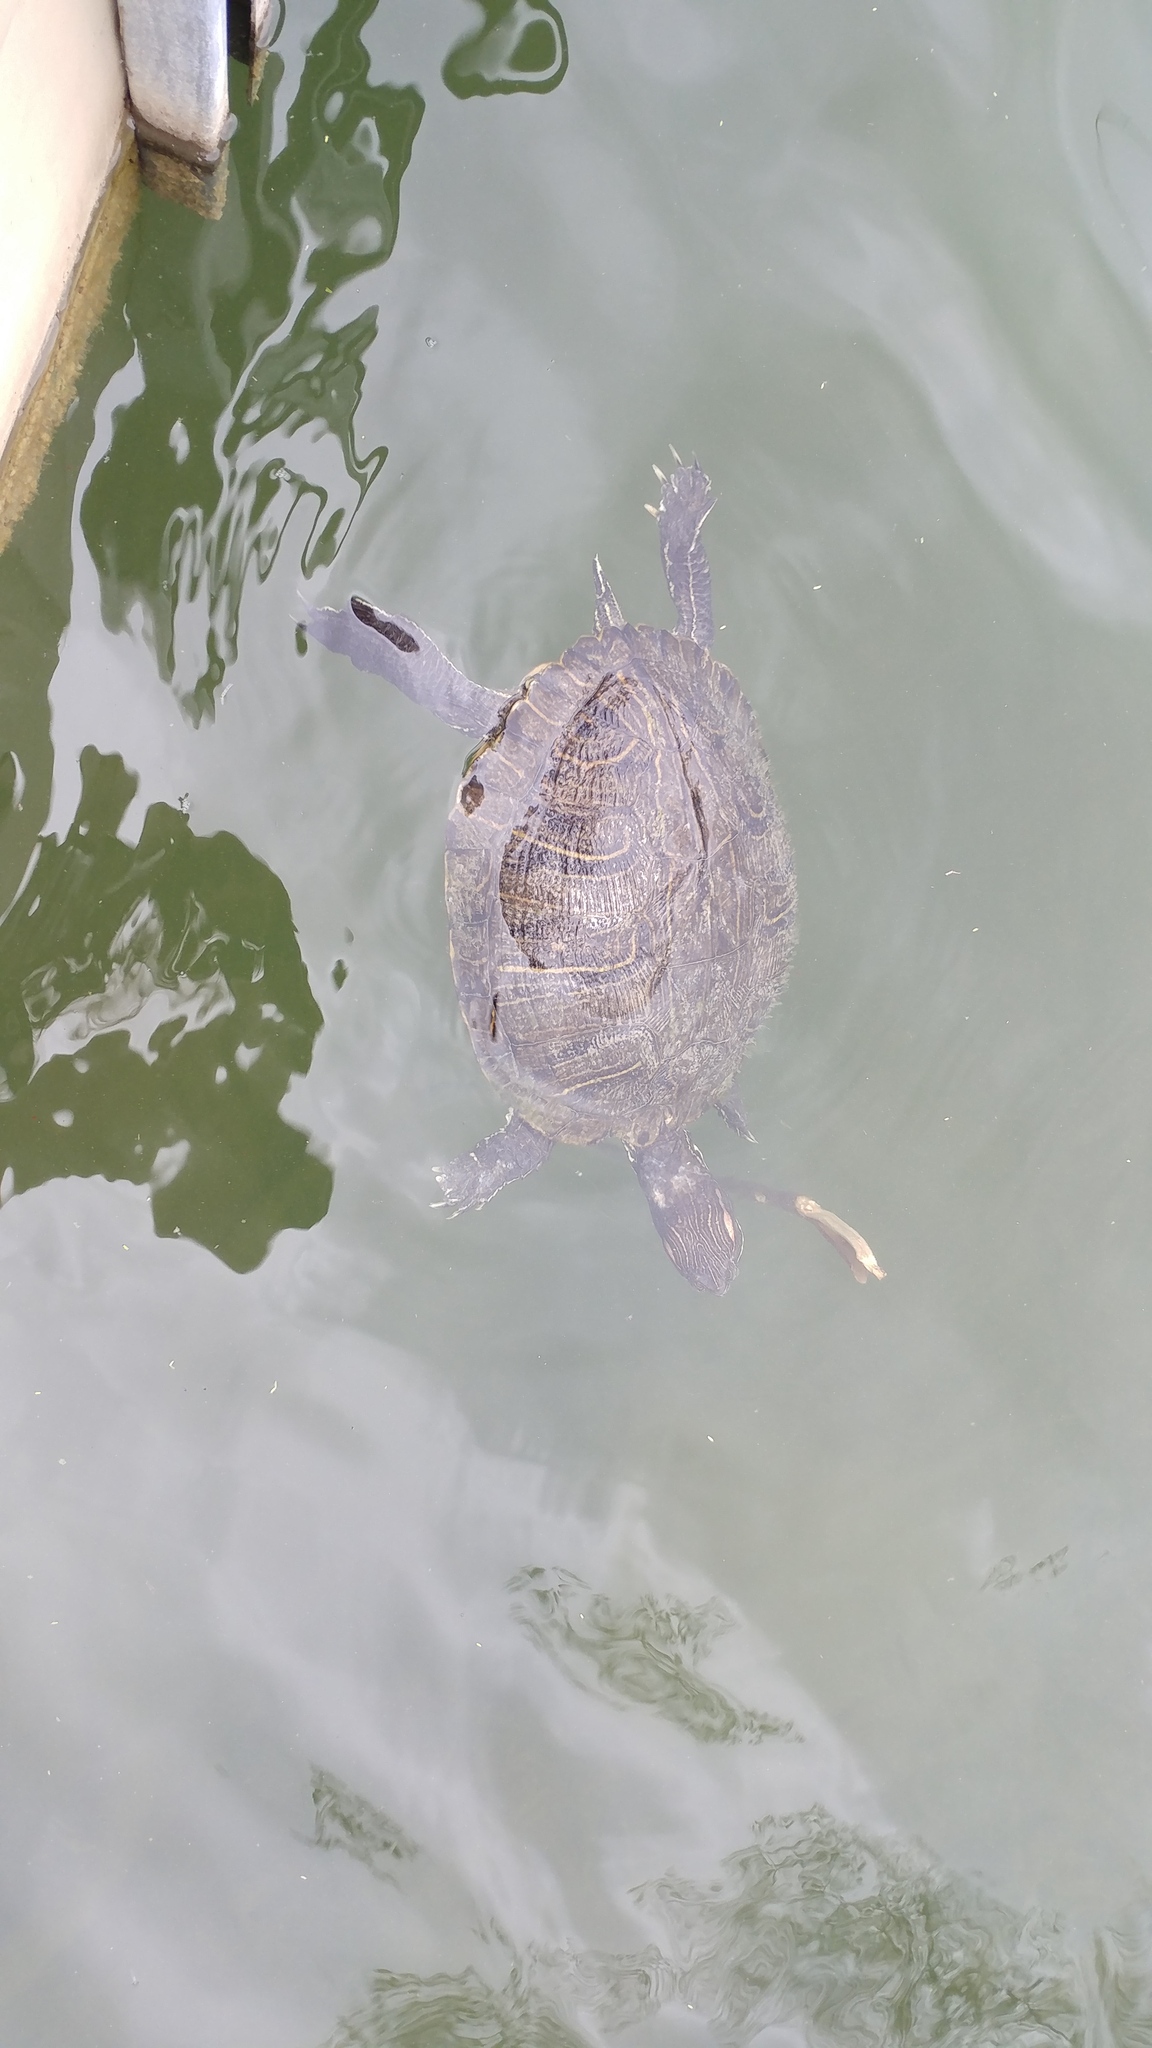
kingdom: Animalia
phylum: Chordata
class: Testudines
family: Emydidae
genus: Trachemys
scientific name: Trachemys scripta
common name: Slider
